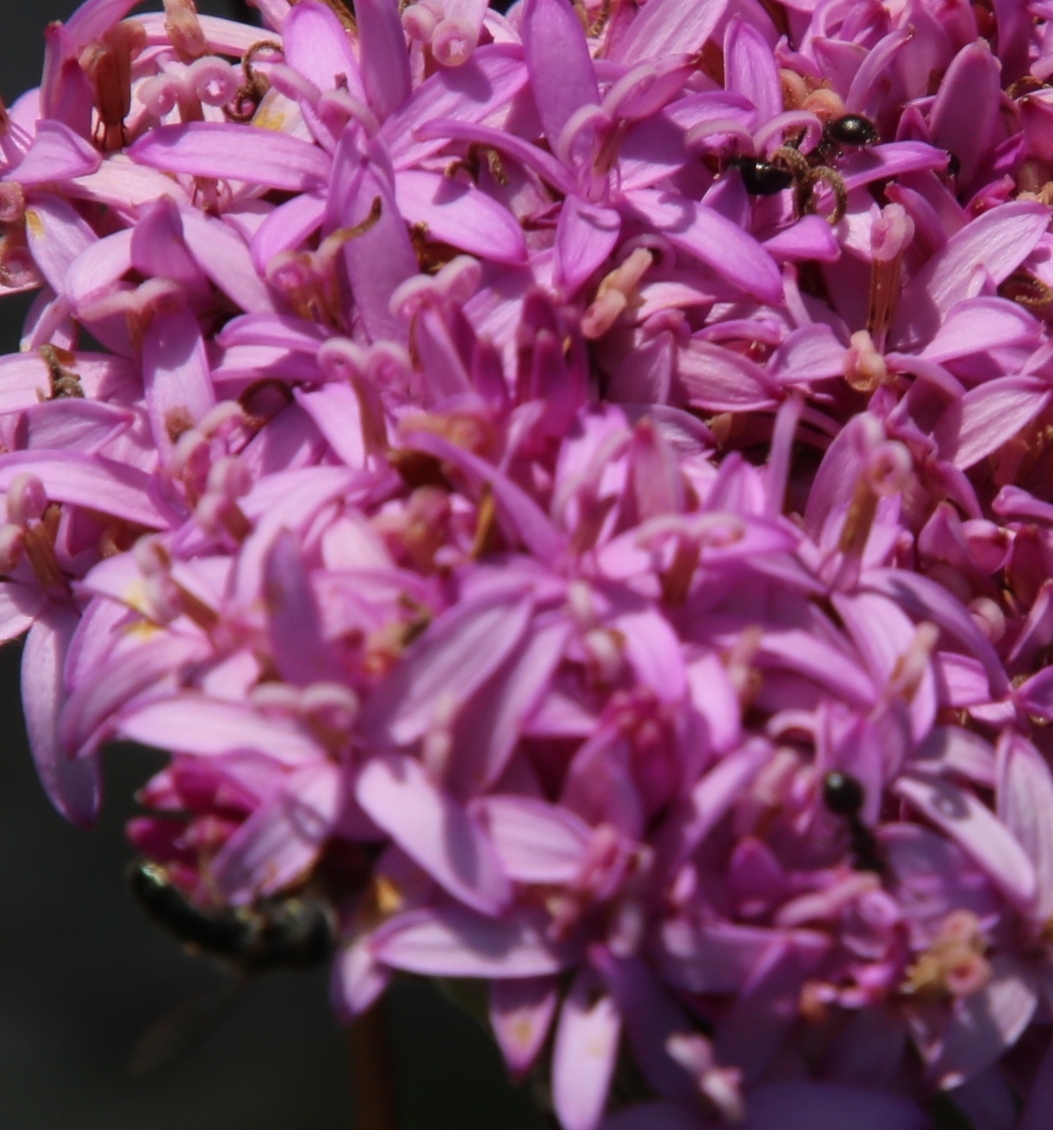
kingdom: Animalia
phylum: Arthropoda
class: Insecta
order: Hymenoptera
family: Formicidae
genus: Lepisiota
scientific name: Lepisiota capensis
